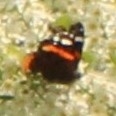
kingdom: Animalia
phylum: Arthropoda
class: Insecta
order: Lepidoptera
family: Nymphalidae
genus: Vanessa
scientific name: Vanessa atalanta
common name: Red admiral
